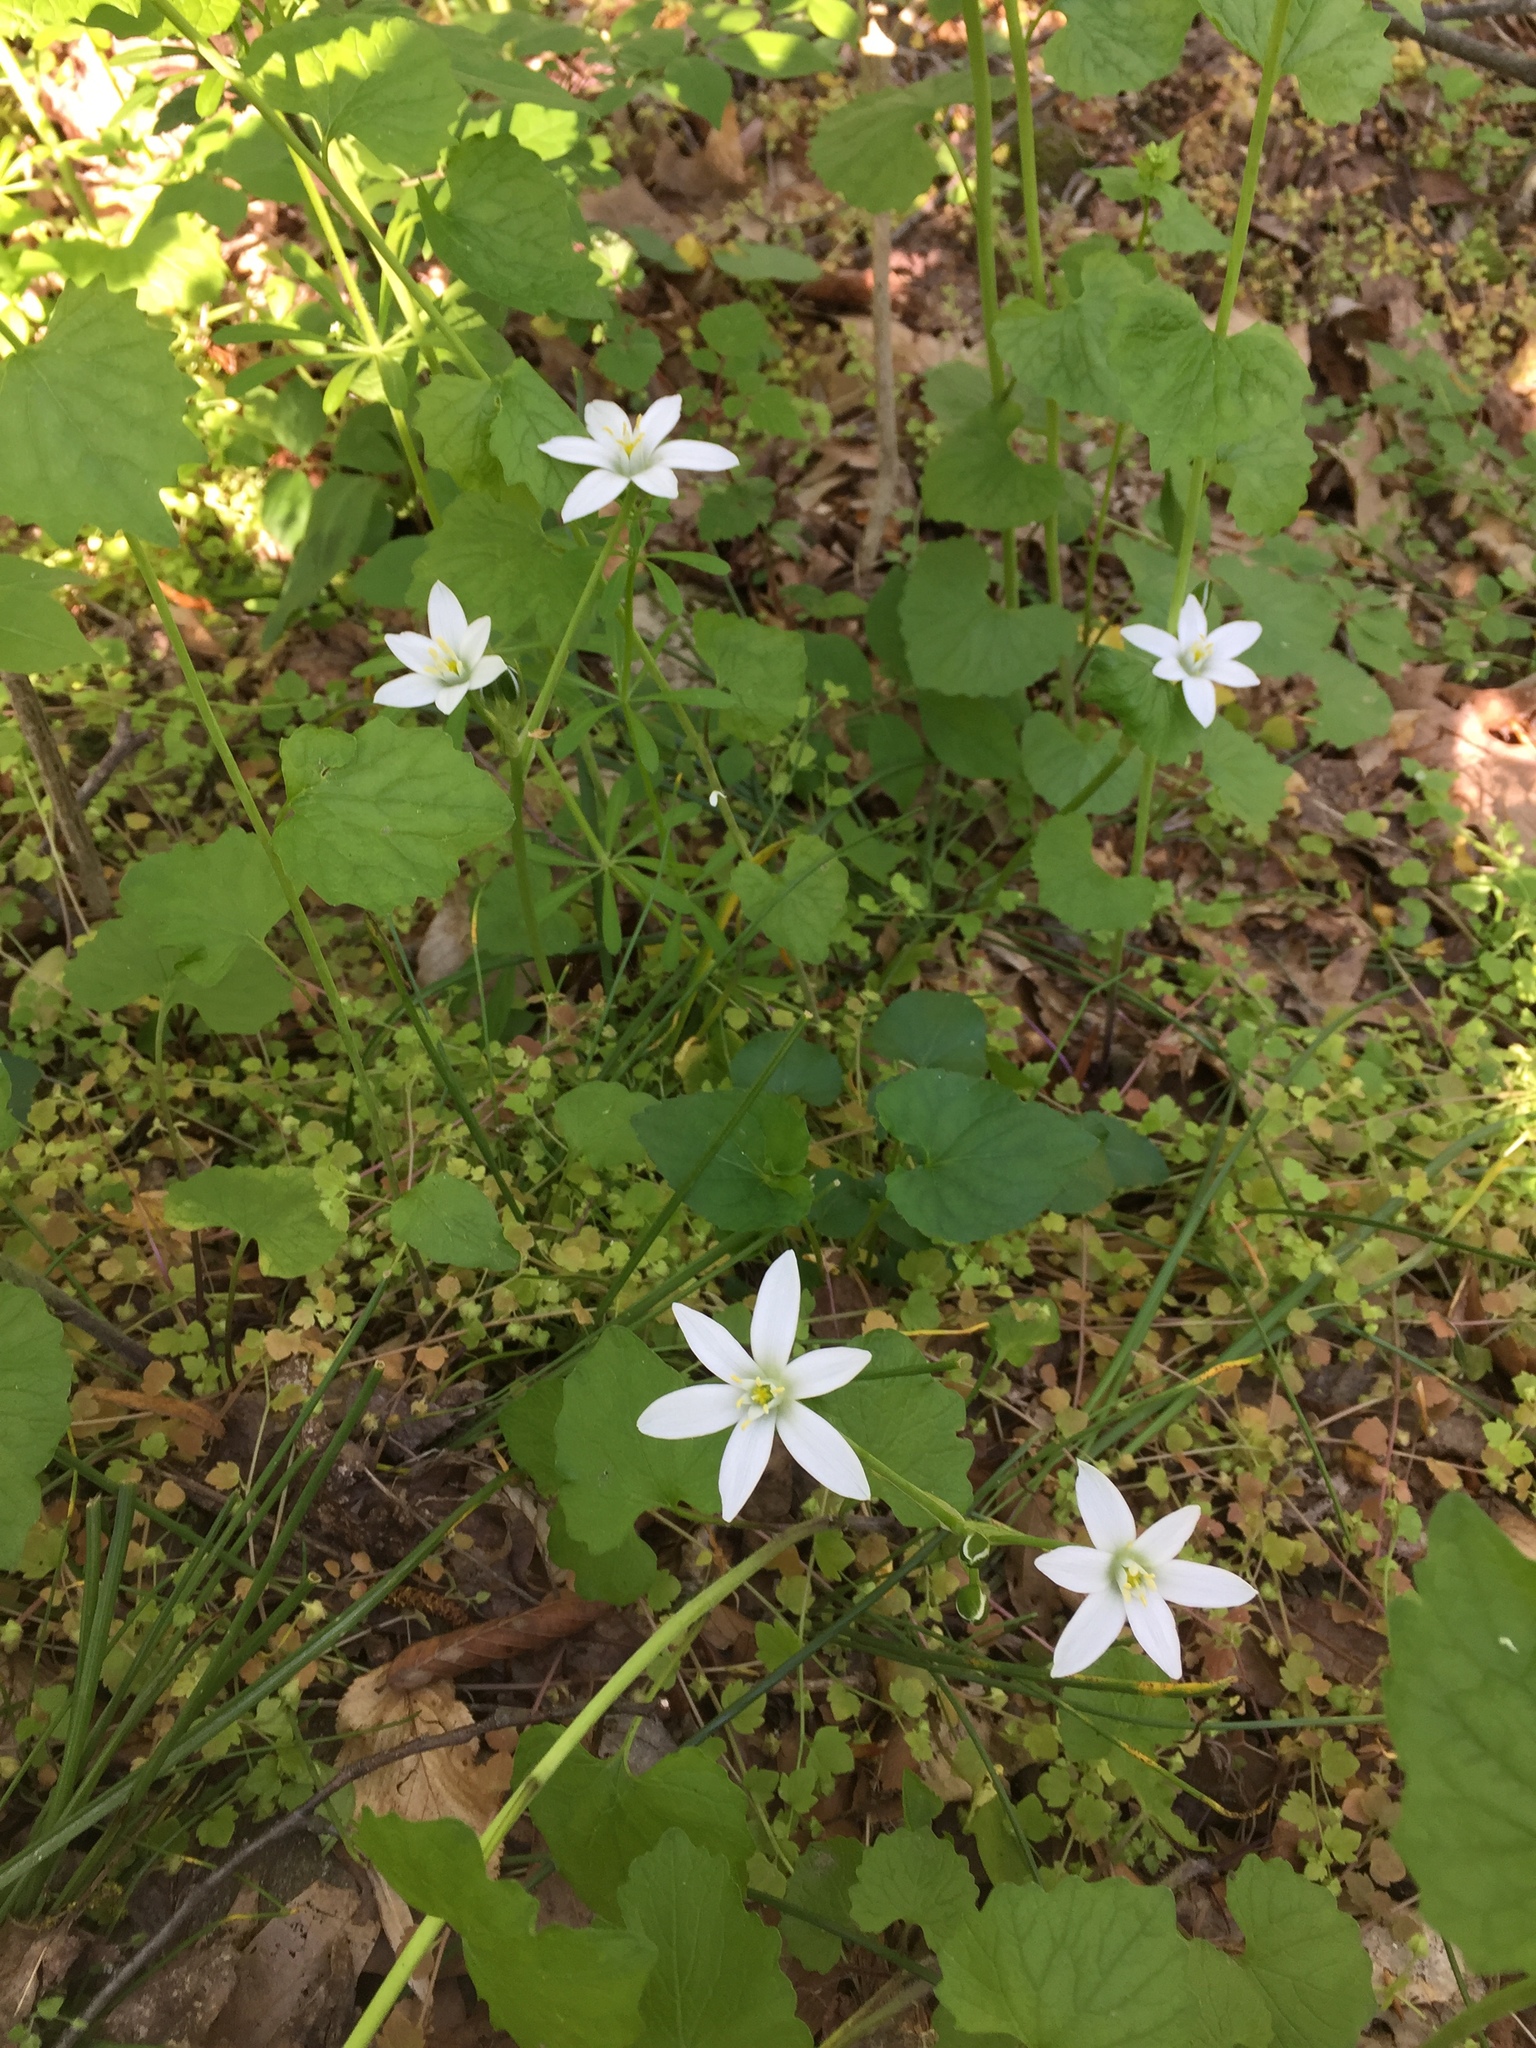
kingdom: Plantae
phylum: Tracheophyta
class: Liliopsida
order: Asparagales
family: Asparagaceae
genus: Ornithogalum
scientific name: Ornithogalum umbellatum
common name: Garden star-of-bethlehem
